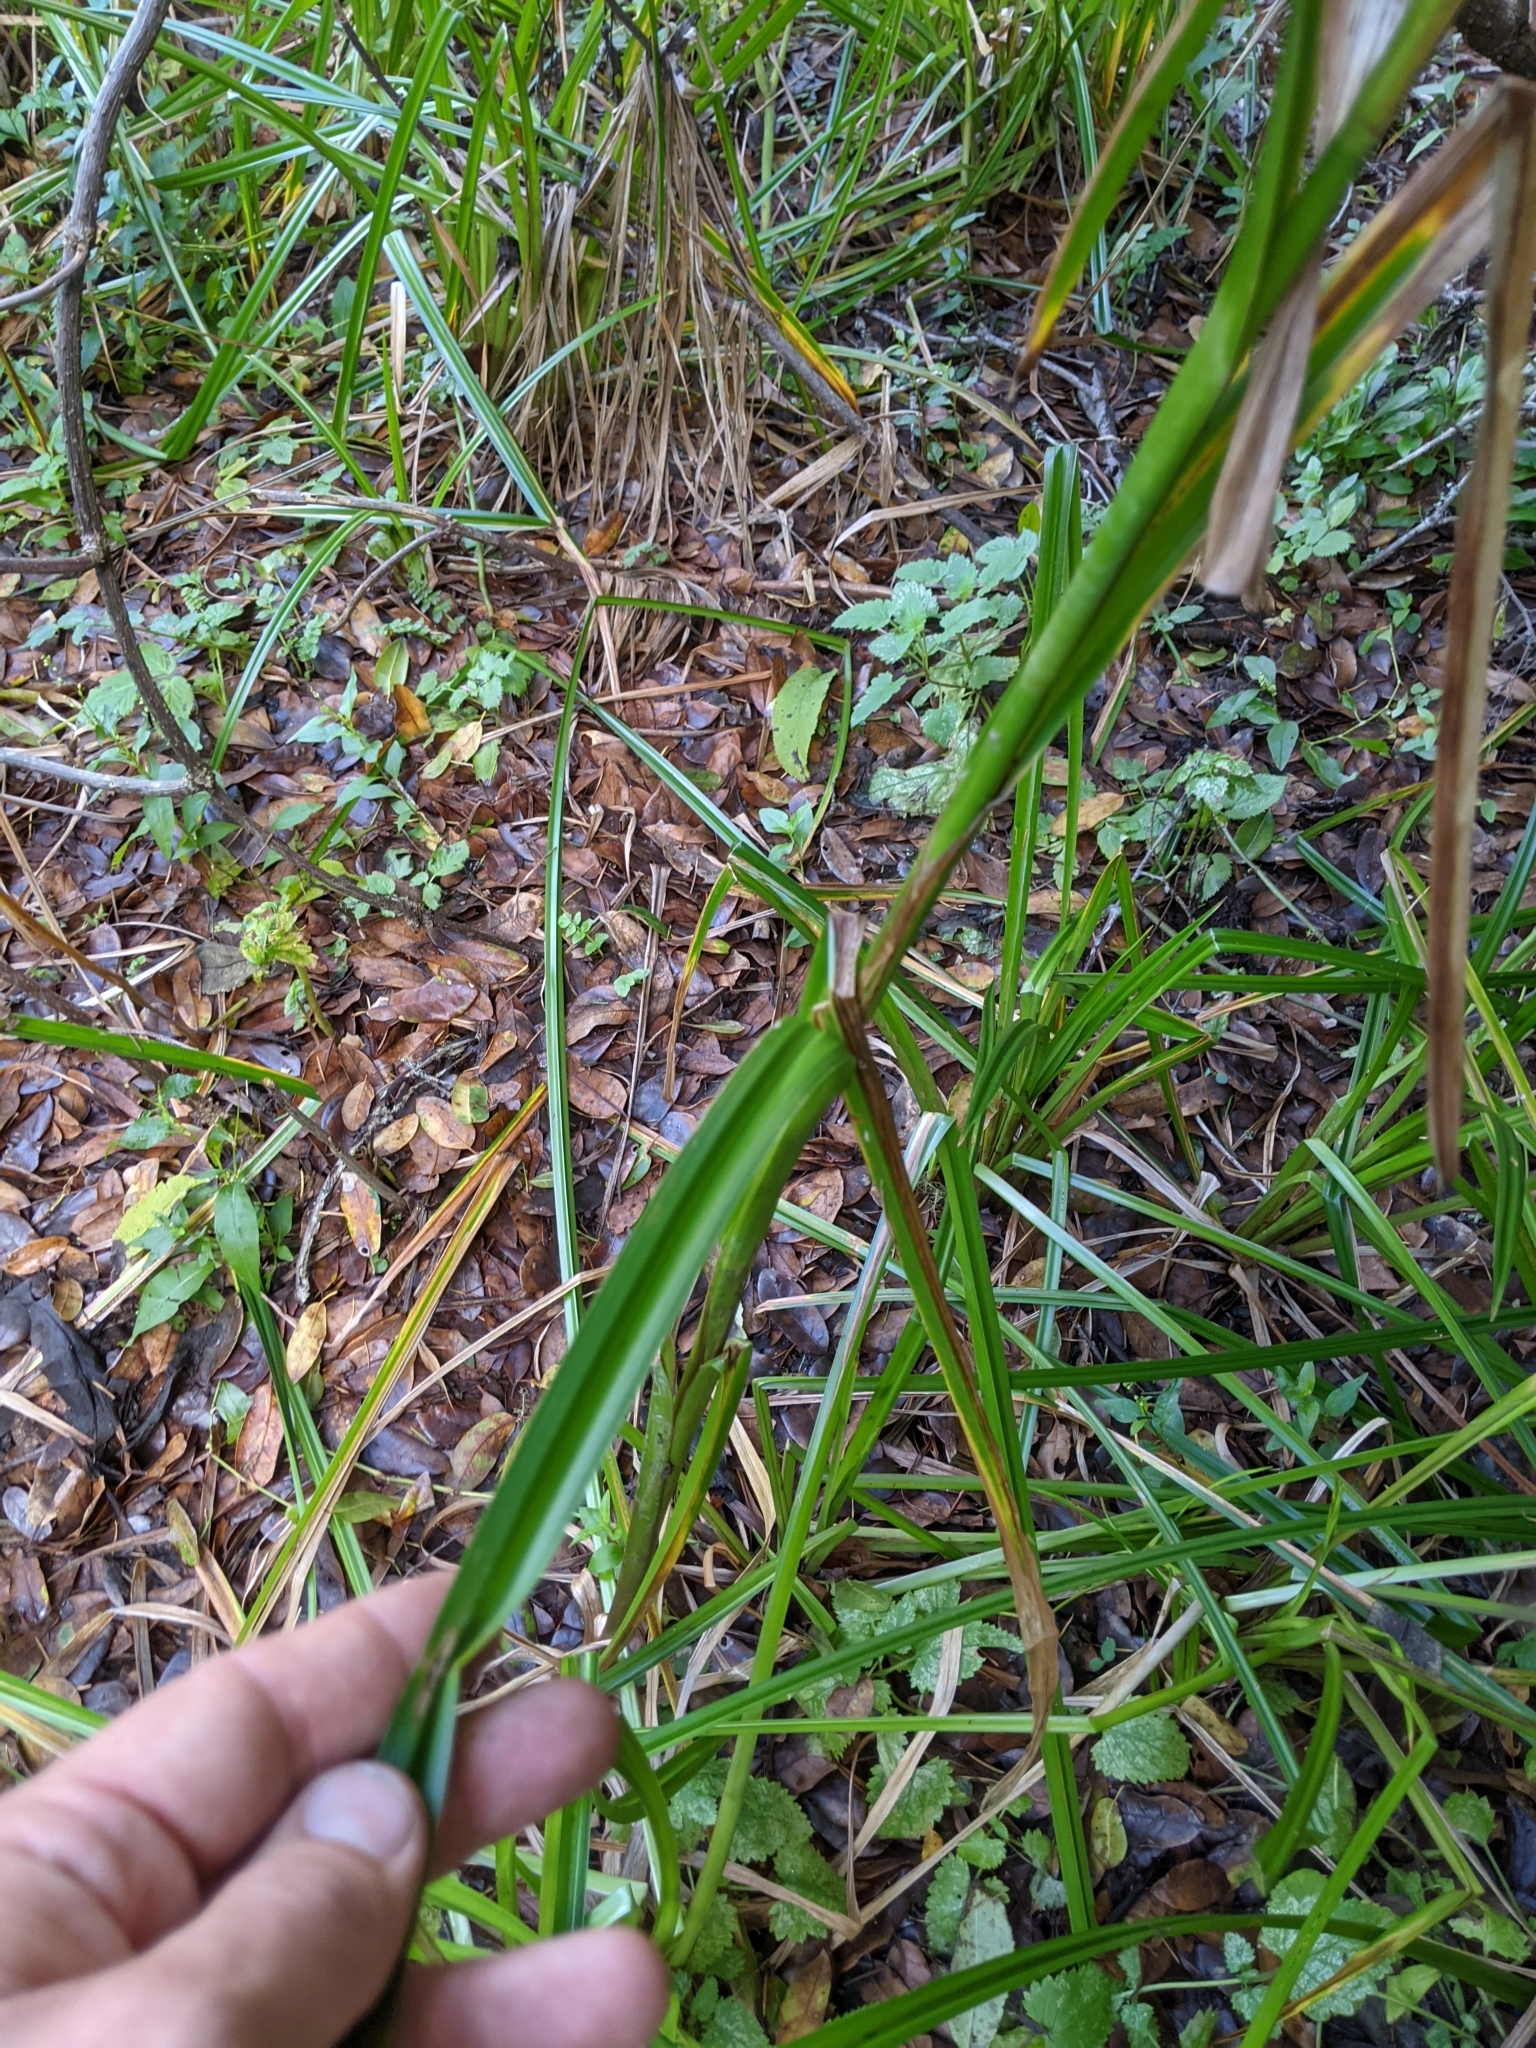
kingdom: Plantae
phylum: Tracheophyta
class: Liliopsida
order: Poales
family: Cyperaceae
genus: Scirpus
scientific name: Scirpus microcarpus
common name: Panicled bulrush
